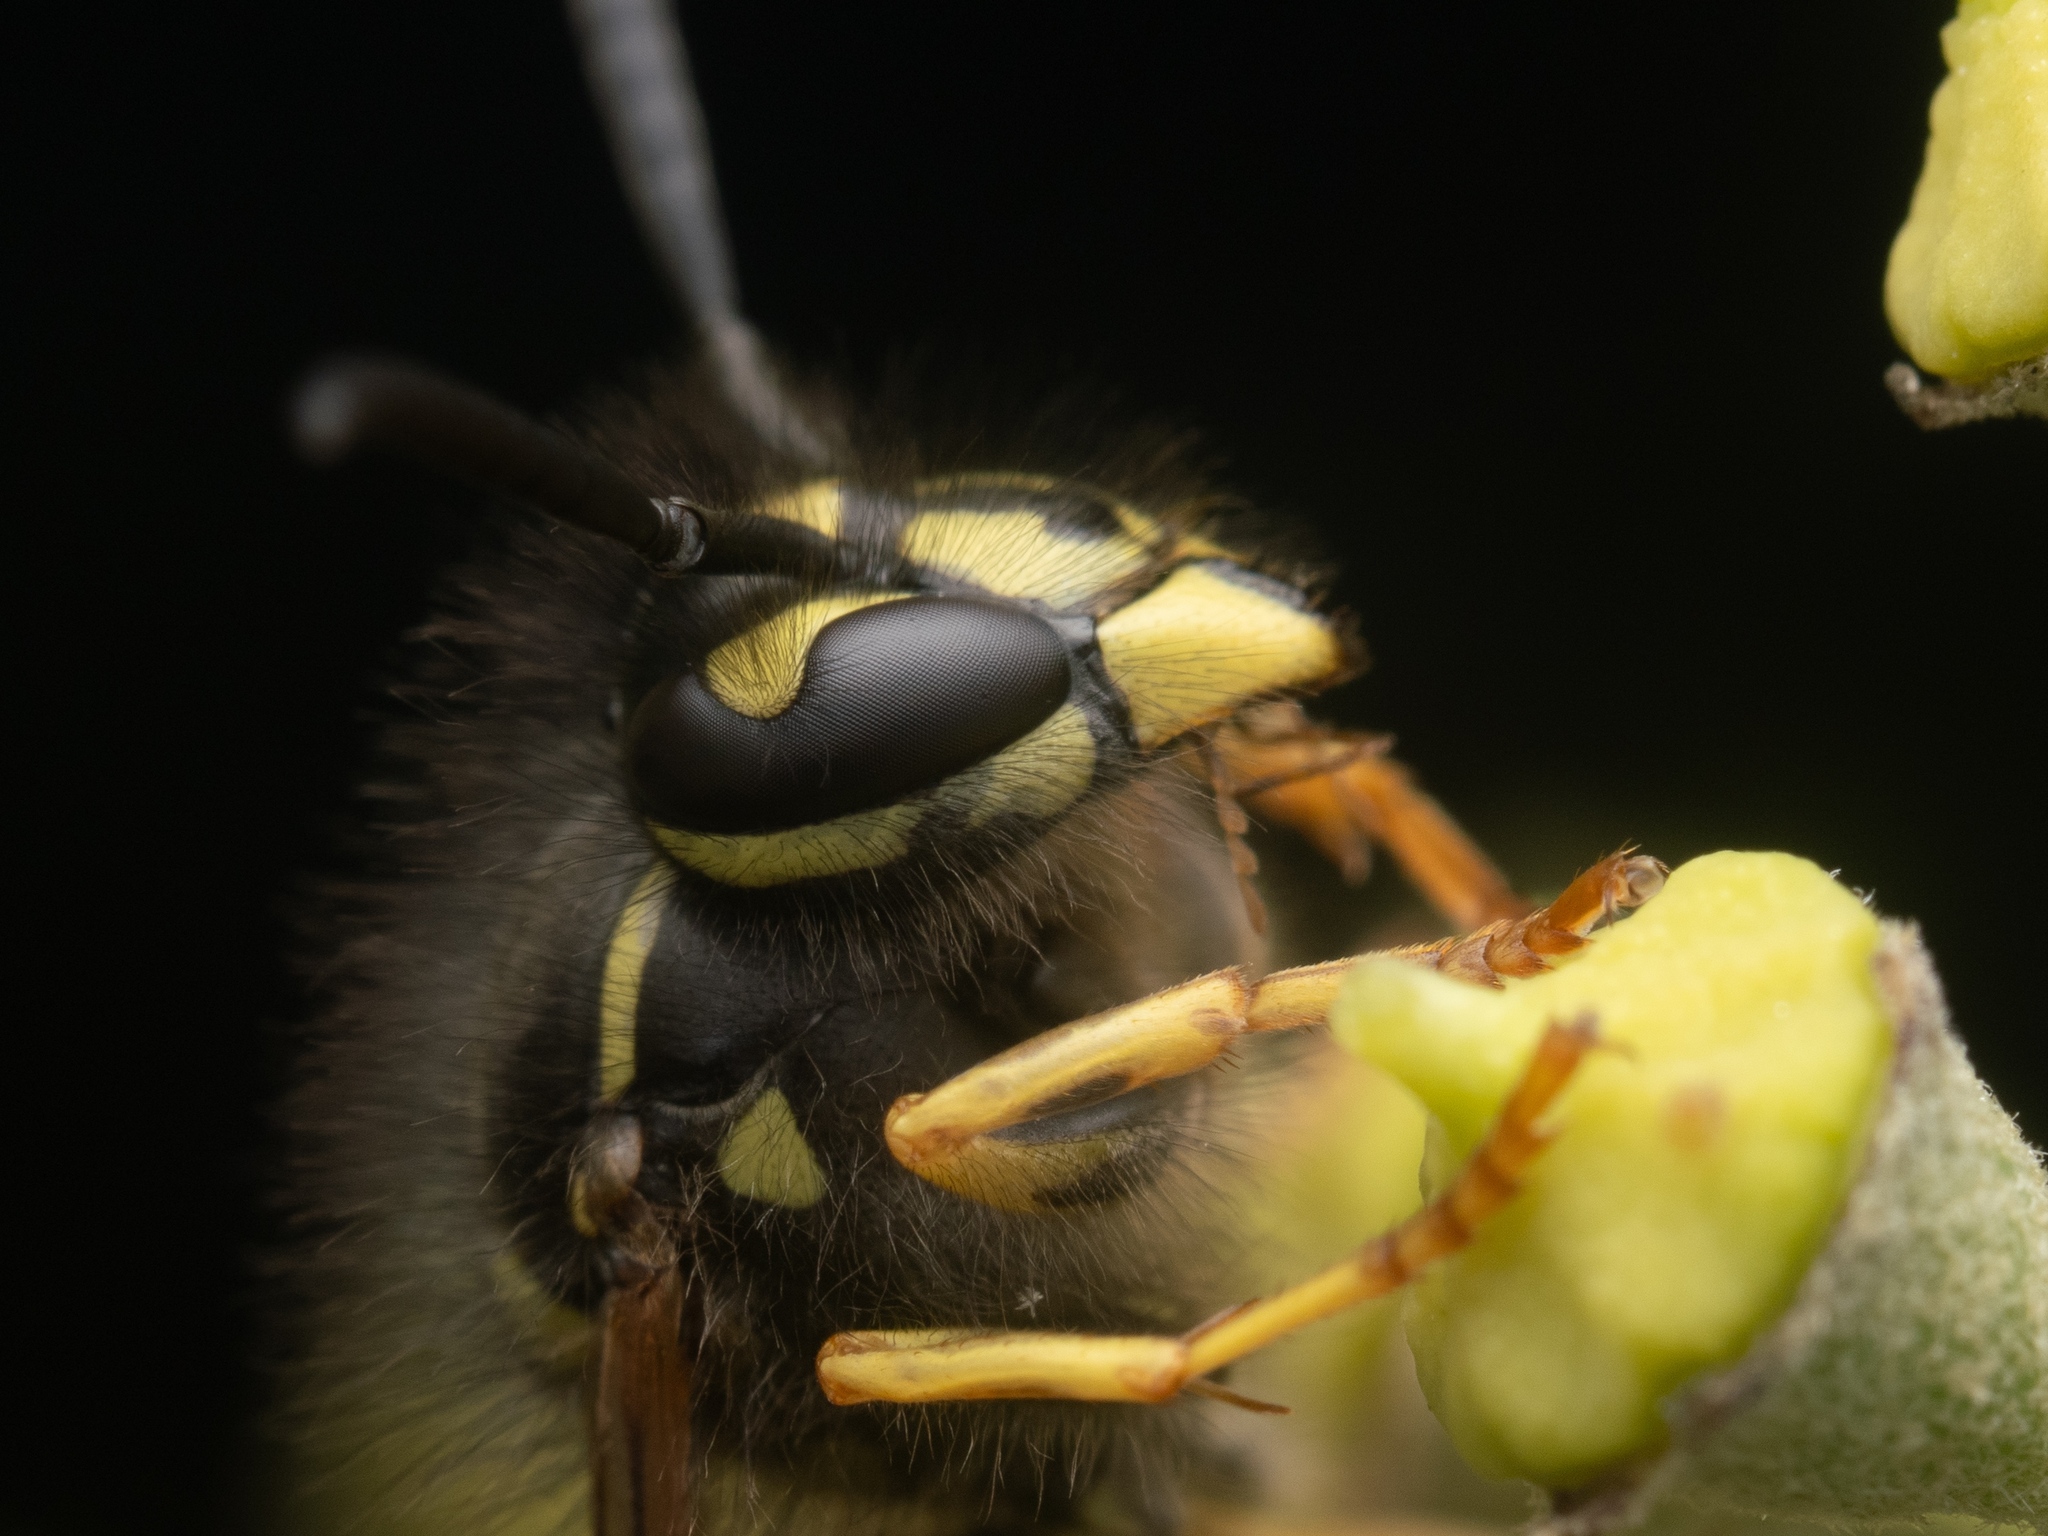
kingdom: Animalia
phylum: Arthropoda
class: Insecta
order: Hymenoptera
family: Vespidae
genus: Vespula
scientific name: Vespula vulgaris
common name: Common wasp
